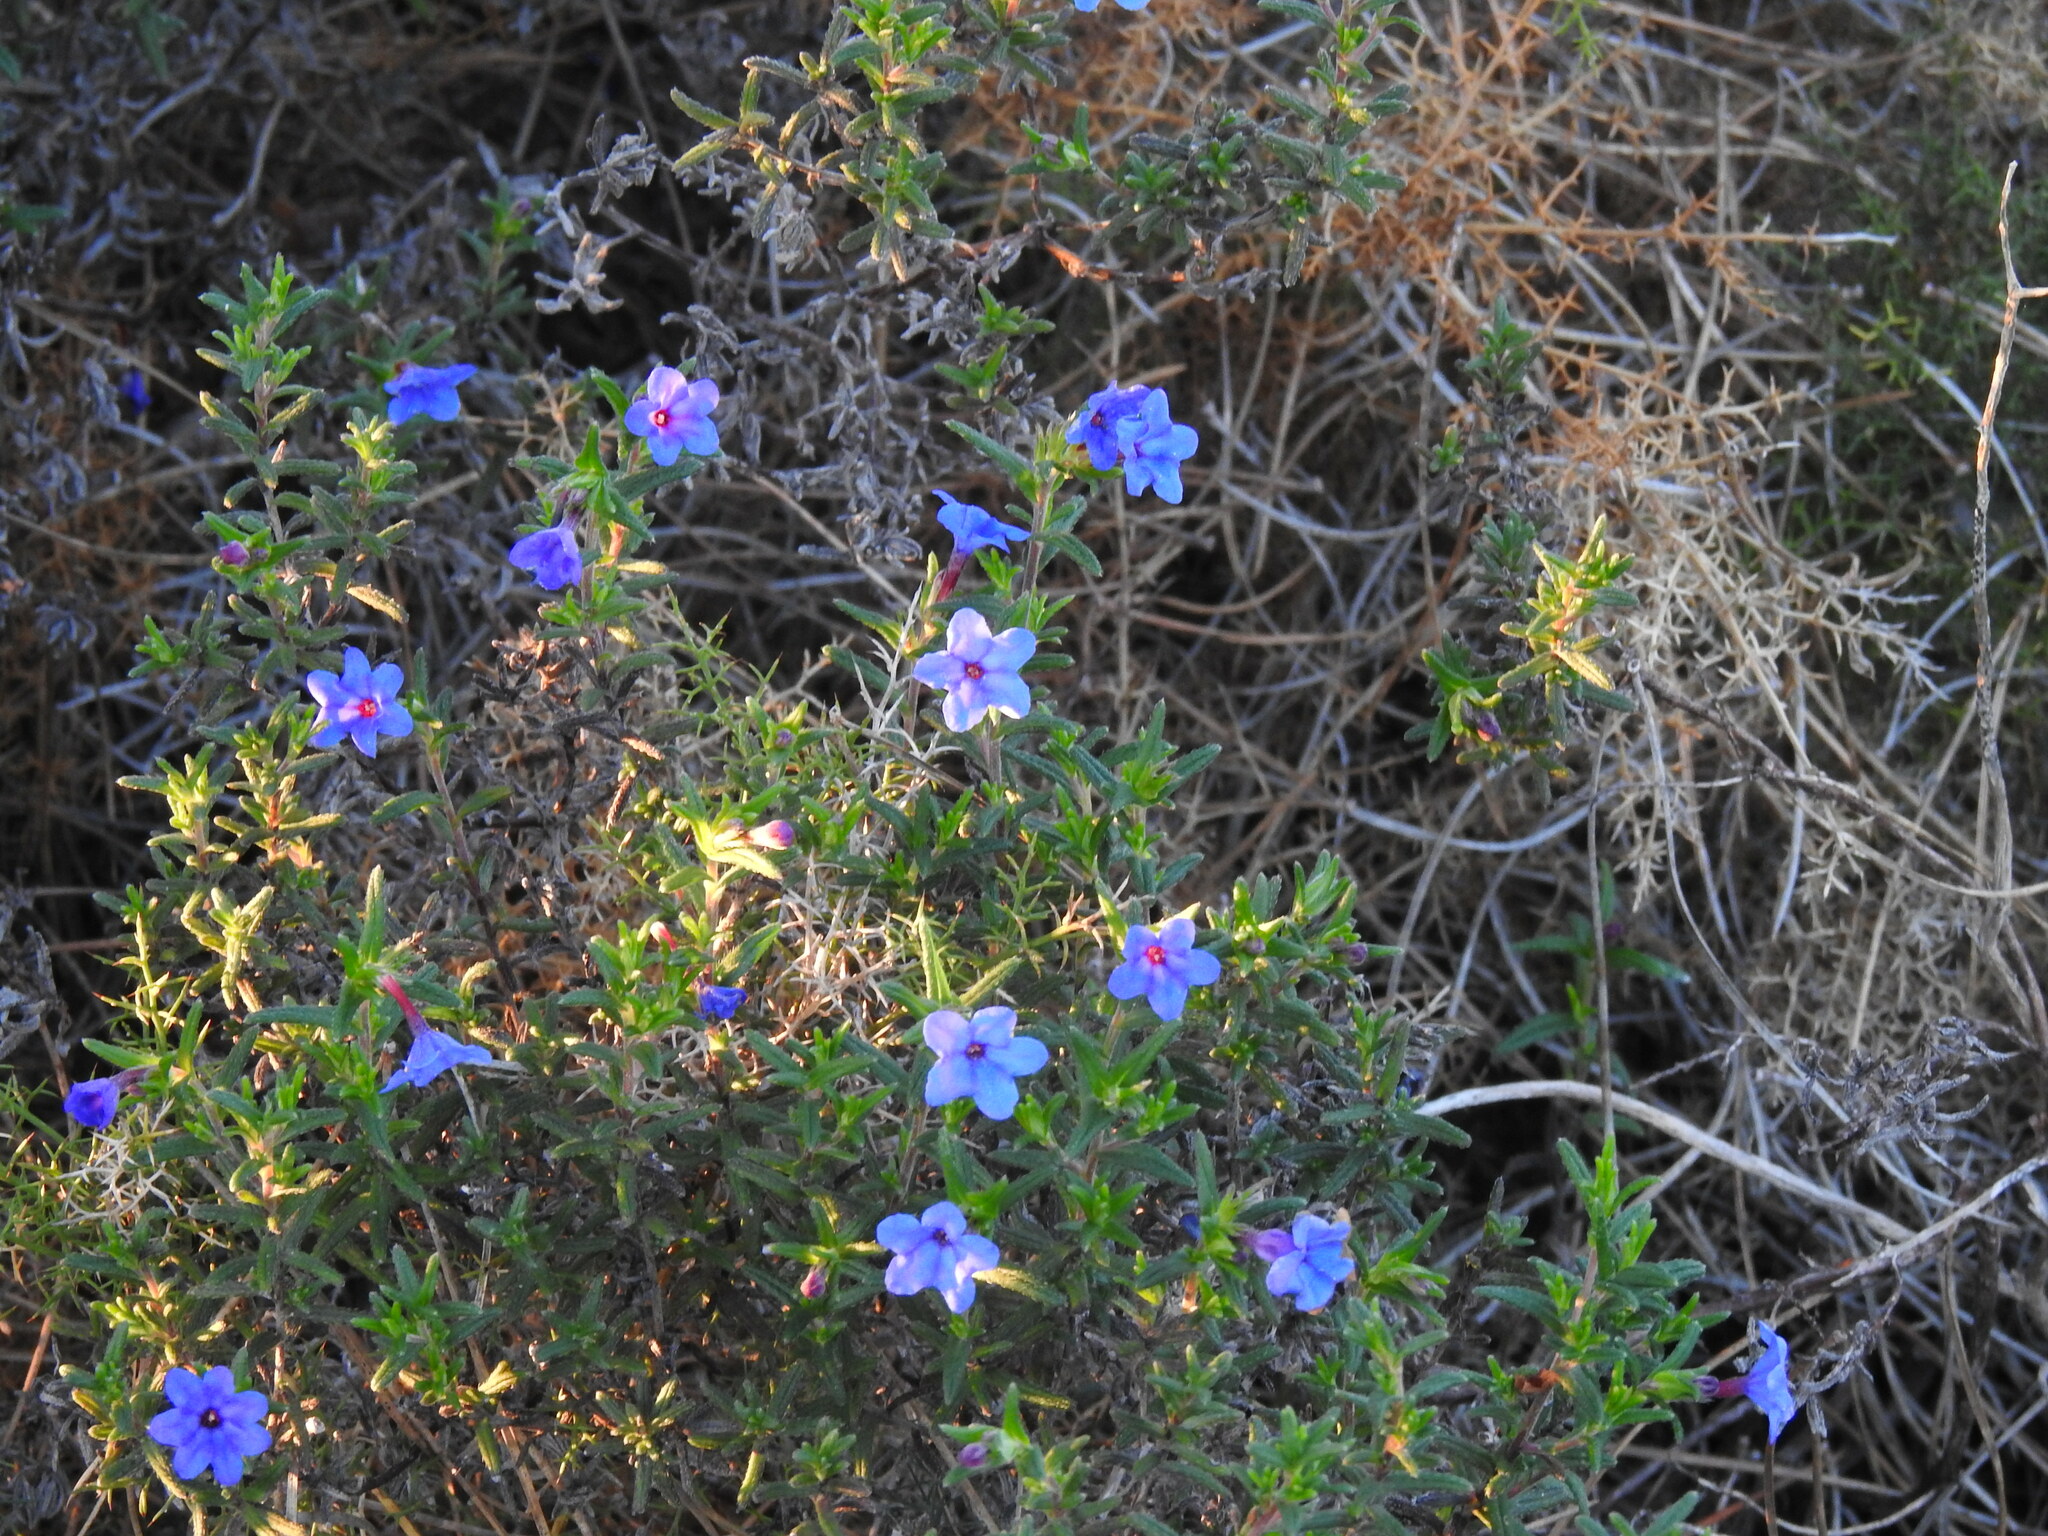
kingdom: Plantae
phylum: Tracheophyta
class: Magnoliopsida
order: Boraginales
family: Boraginaceae
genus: Glandora
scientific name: Glandora prostrata
